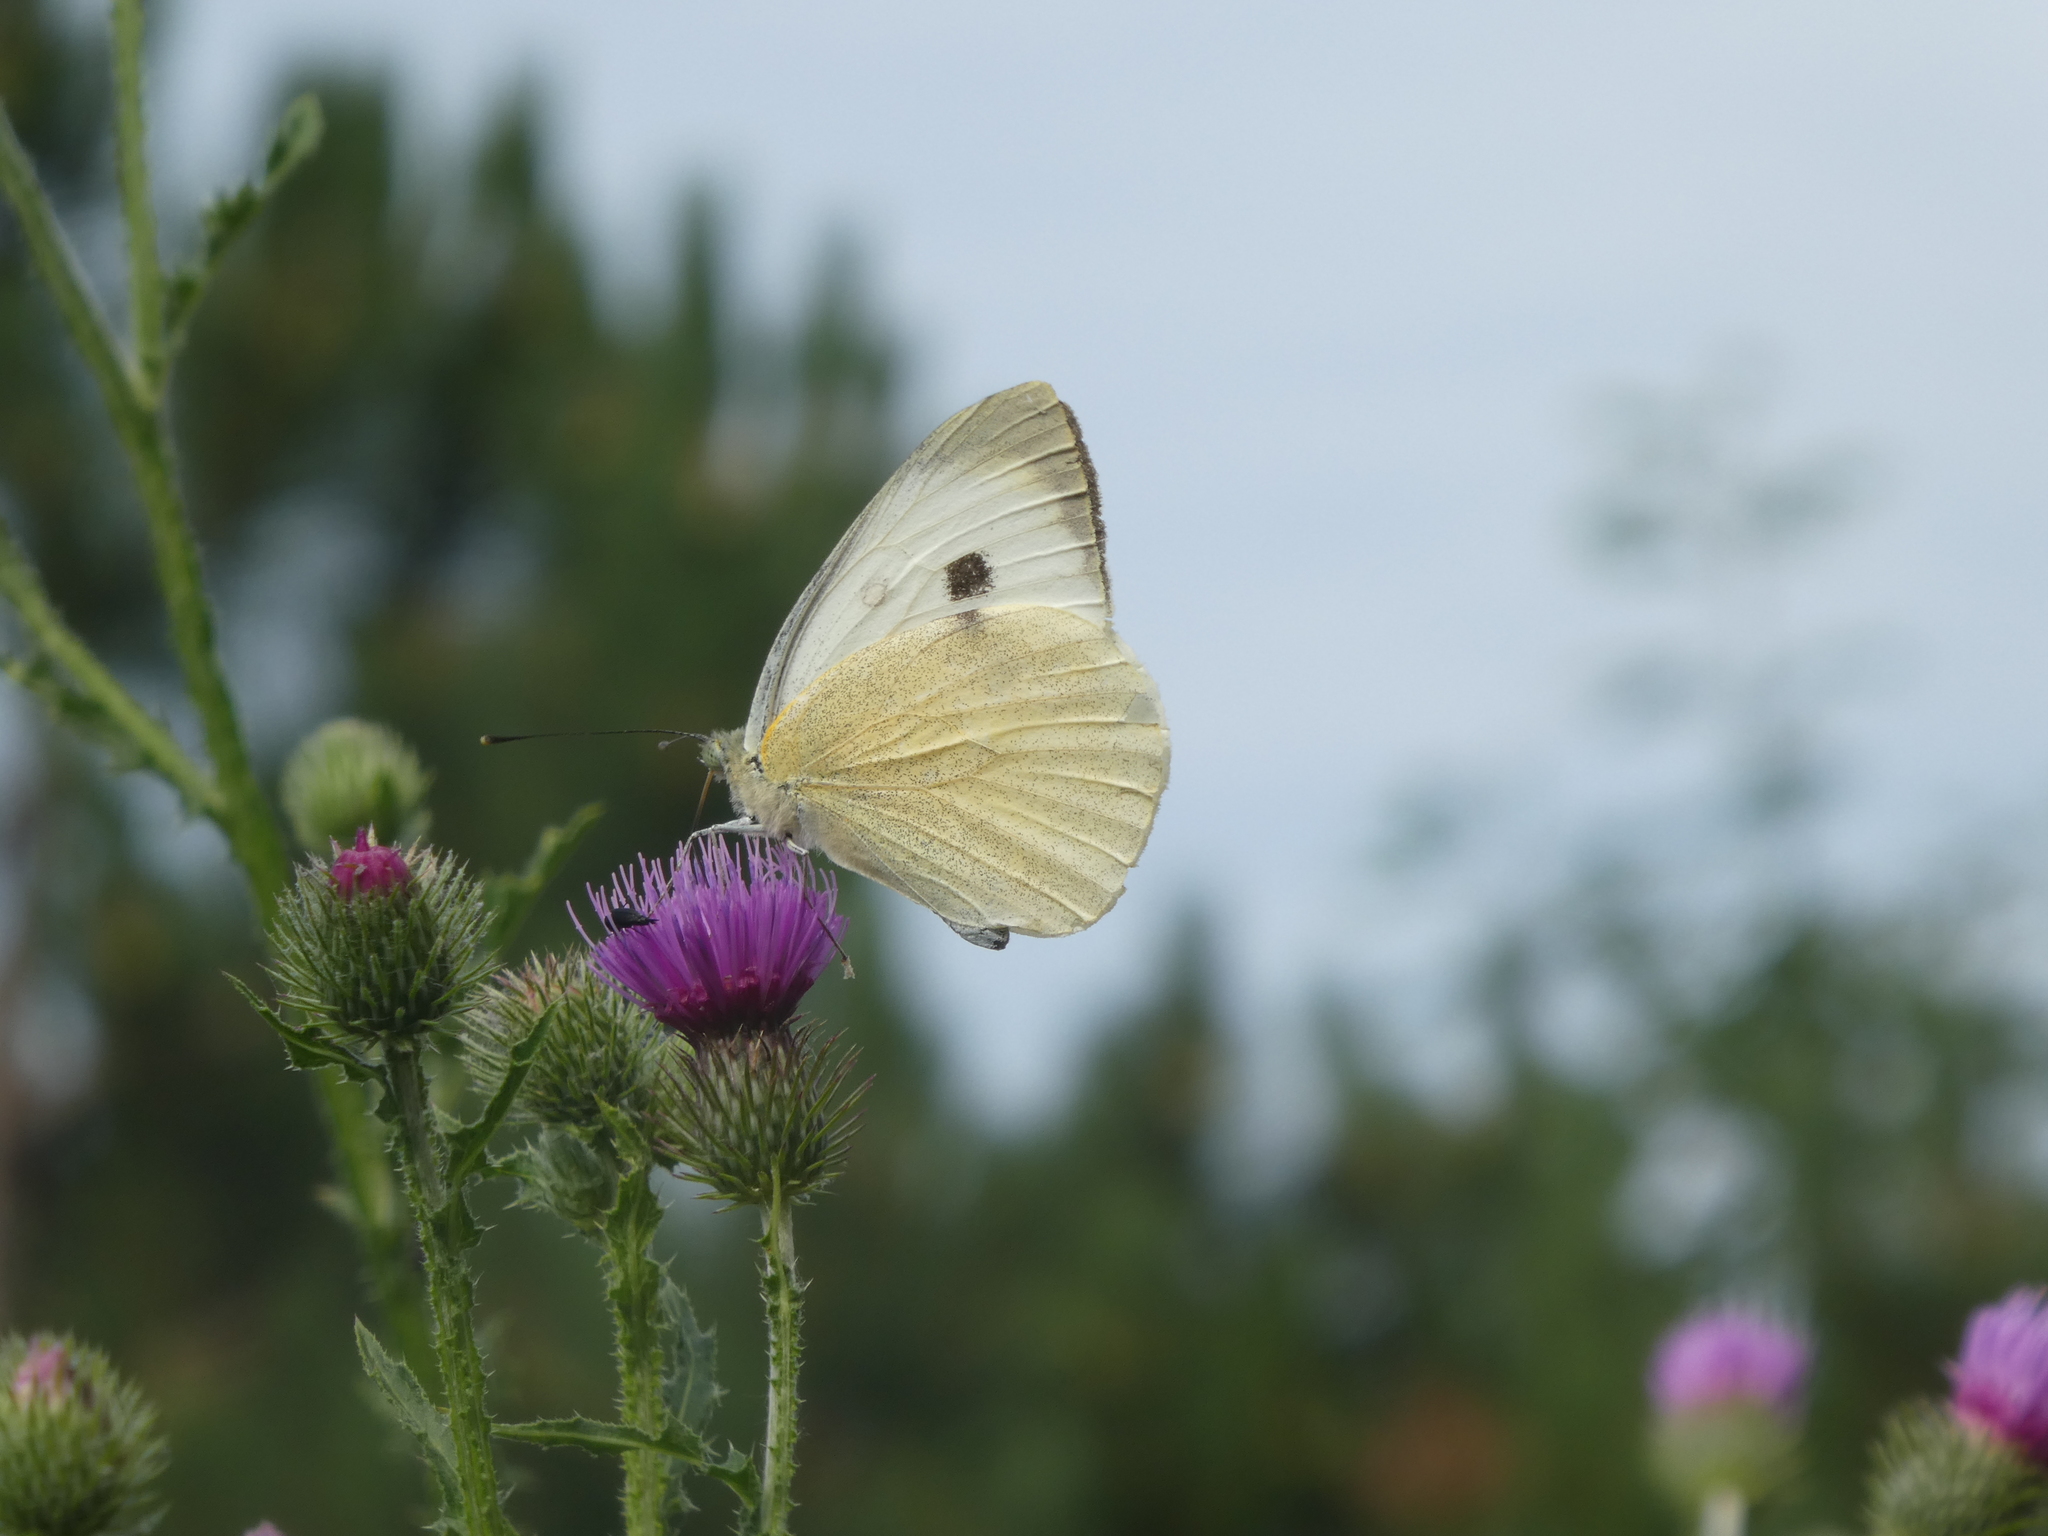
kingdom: Animalia
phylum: Arthropoda
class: Insecta
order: Lepidoptera
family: Pieridae
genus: Pieris
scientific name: Pieris brassicae
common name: Large white
